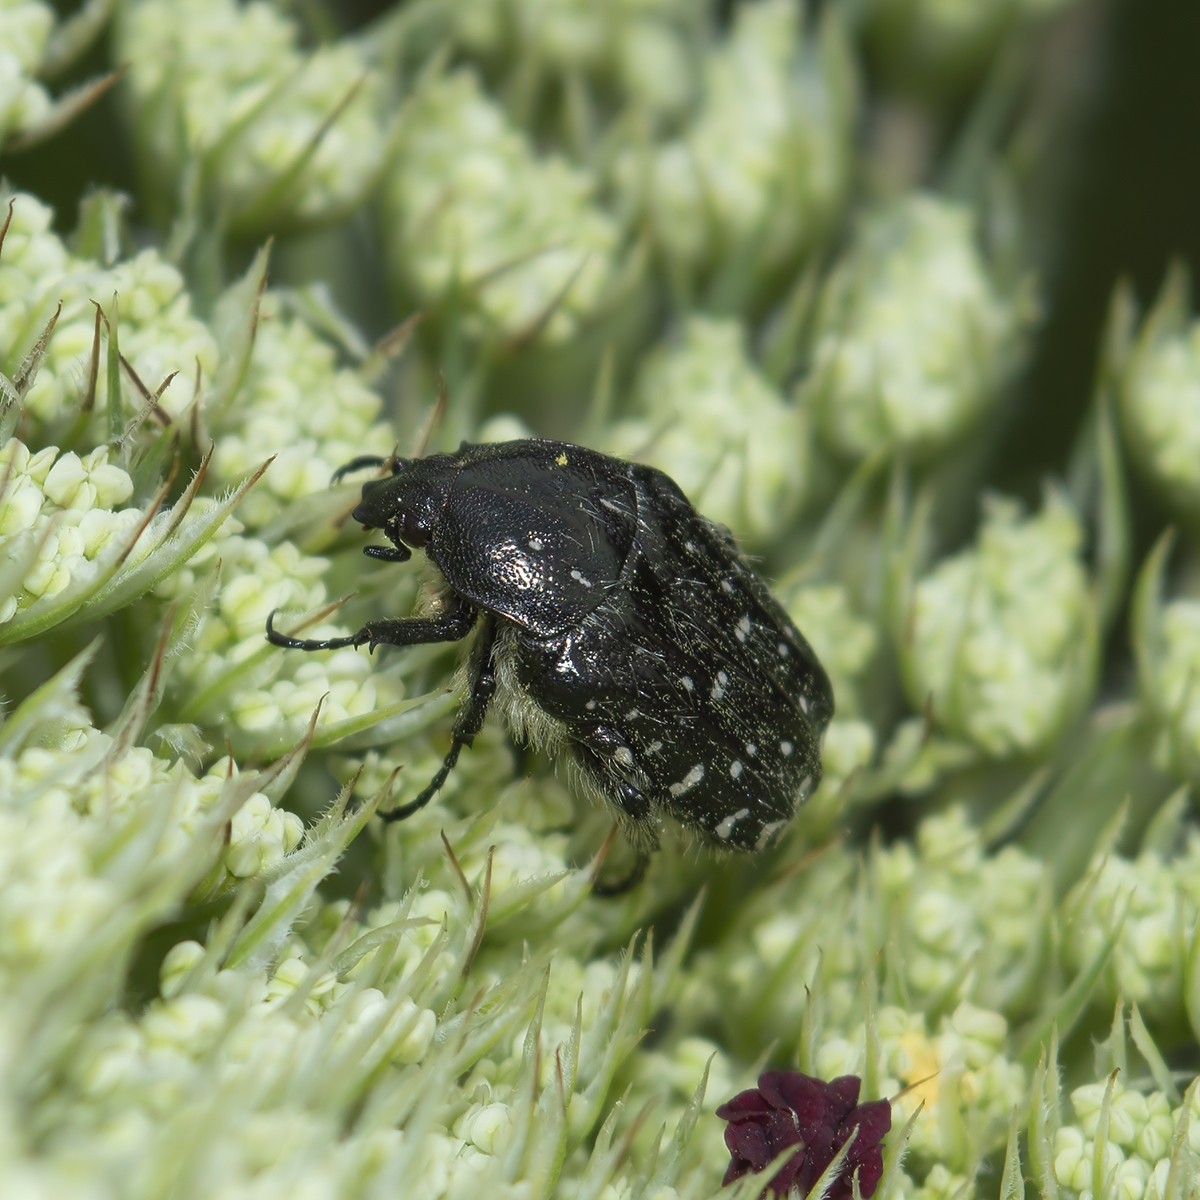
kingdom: Animalia
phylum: Arthropoda
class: Insecta
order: Coleoptera
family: Scarabaeidae
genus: Oxythyrea
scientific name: Oxythyrea funesta
